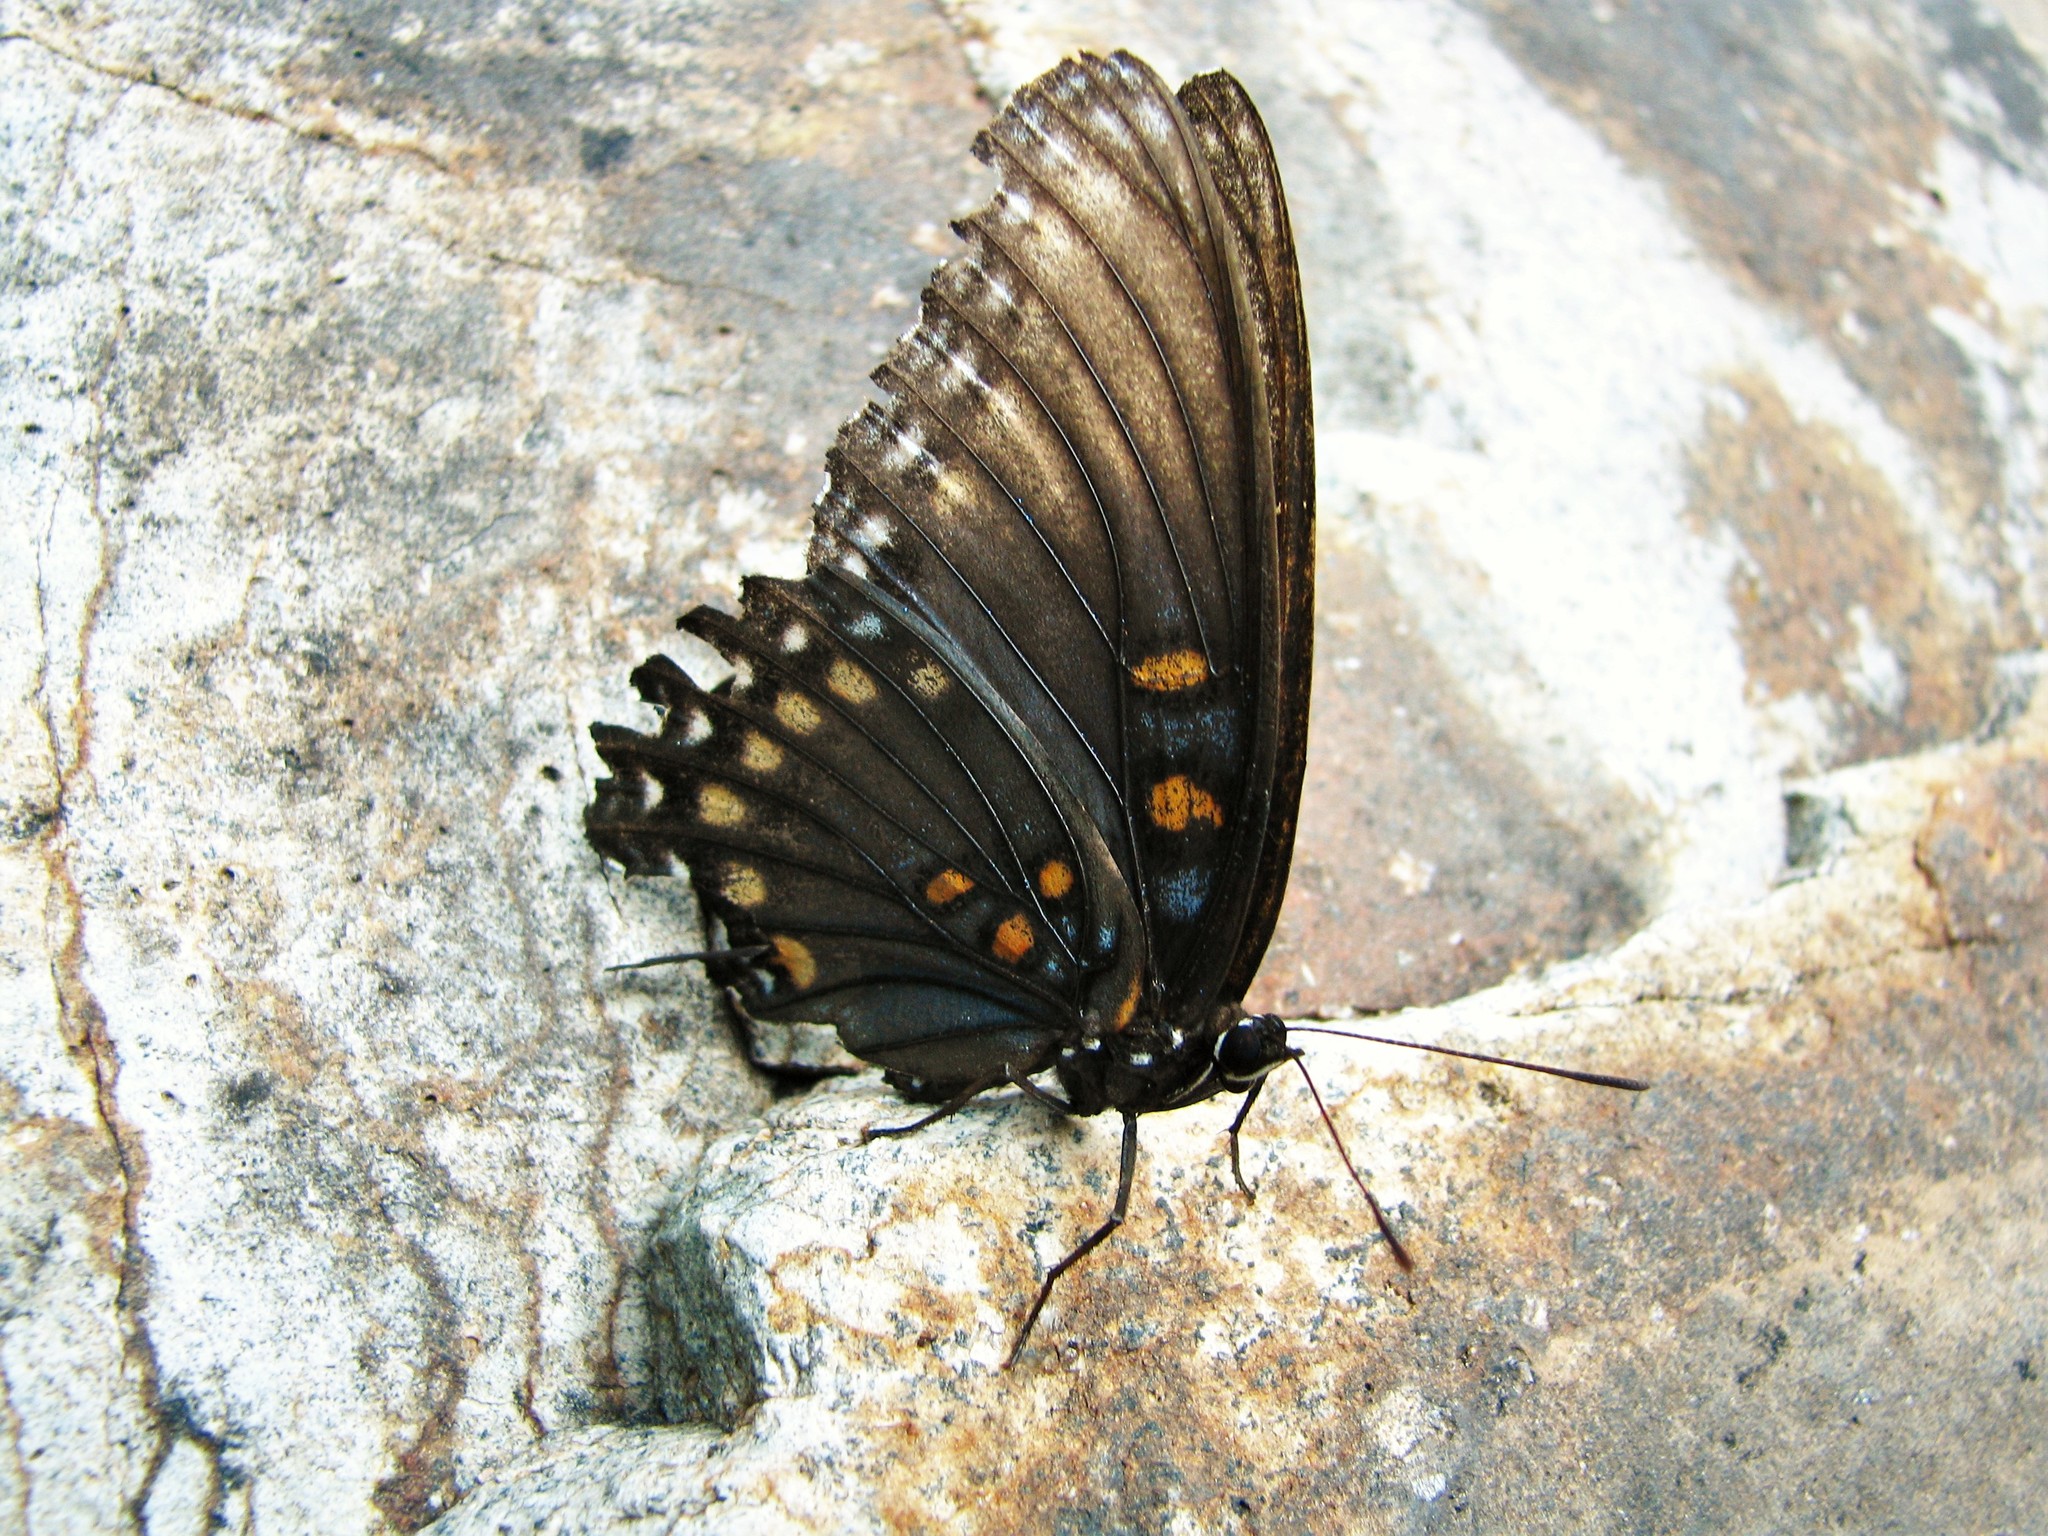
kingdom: Animalia
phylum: Arthropoda
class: Insecta
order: Lepidoptera
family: Nymphalidae
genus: Limenitis
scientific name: Limenitis arthemis
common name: Red-spotted admiral
